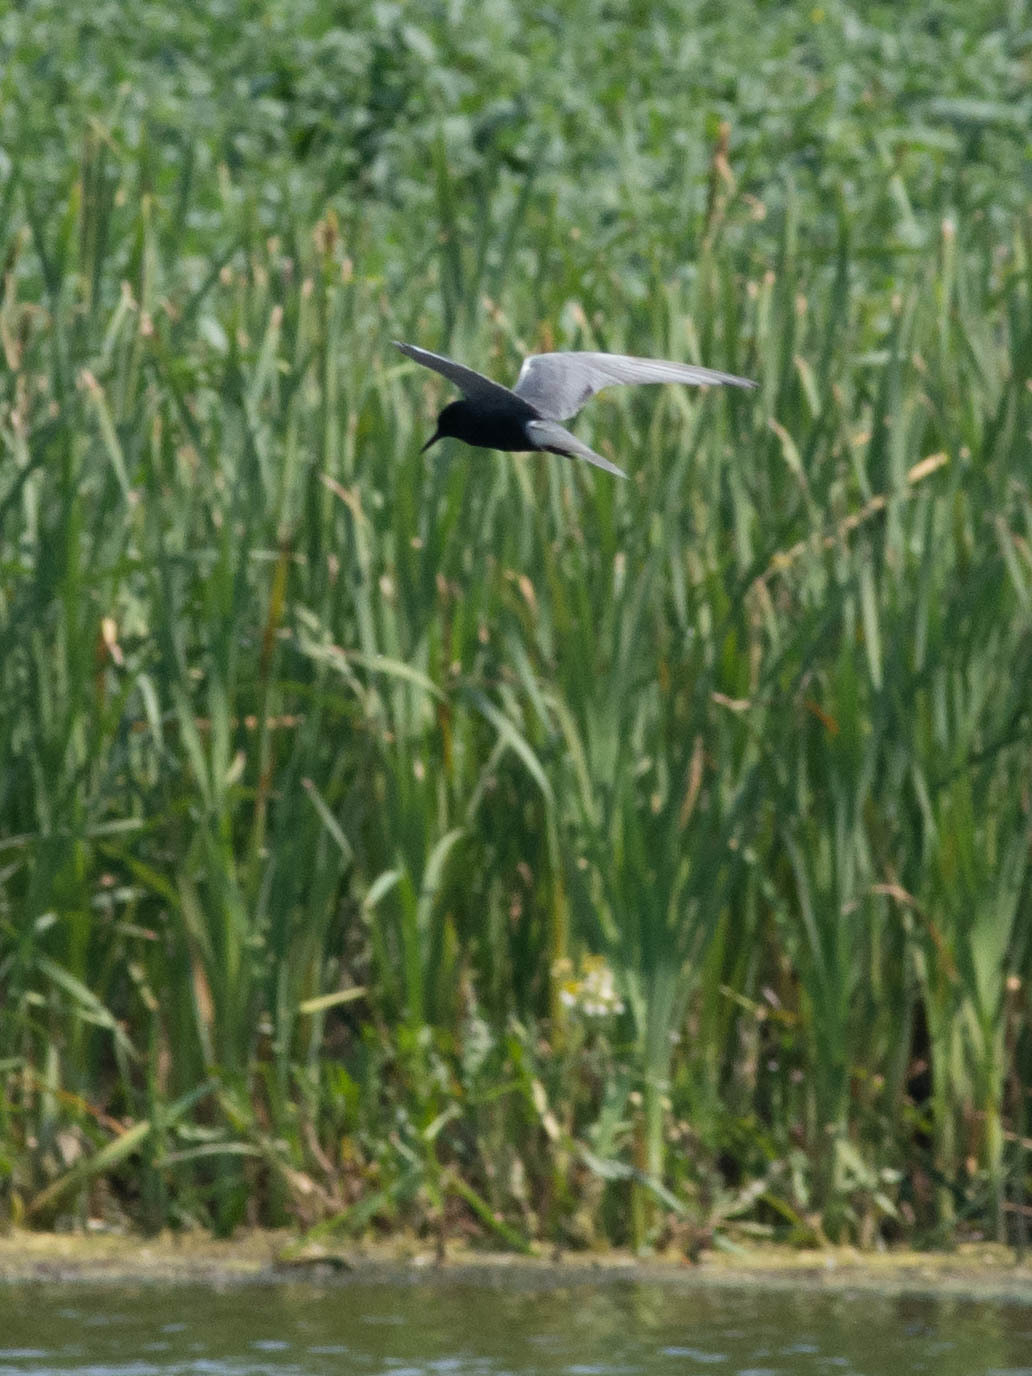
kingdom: Animalia
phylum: Chordata
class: Aves
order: Charadriiformes
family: Laridae
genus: Chlidonias
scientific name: Chlidonias niger
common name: Black tern
